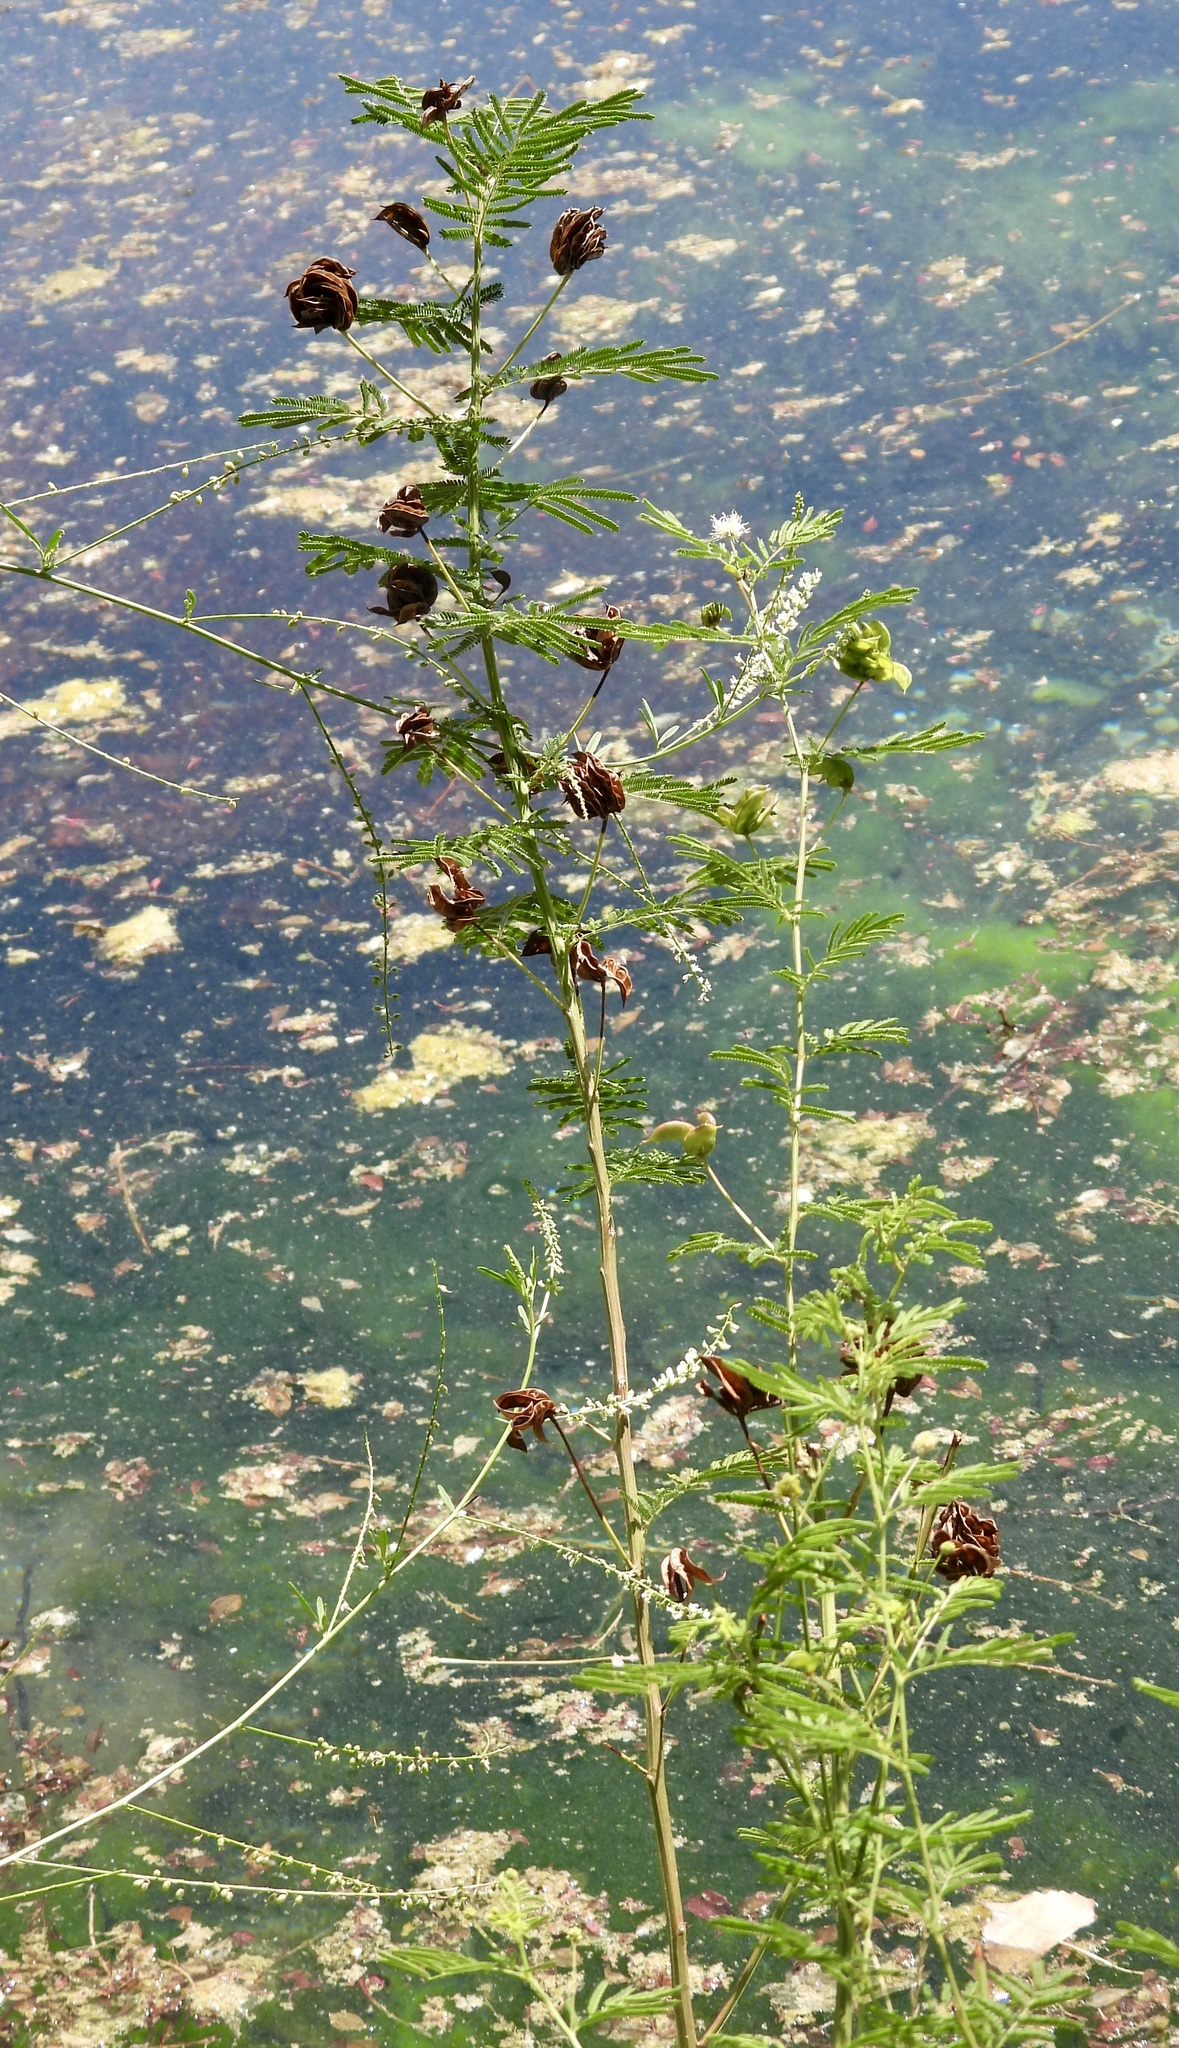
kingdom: Plantae
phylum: Tracheophyta
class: Magnoliopsida
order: Fabales
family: Fabaceae
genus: Desmanthus
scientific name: Desmanthus illinoensis
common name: Illinois bundle-flower
